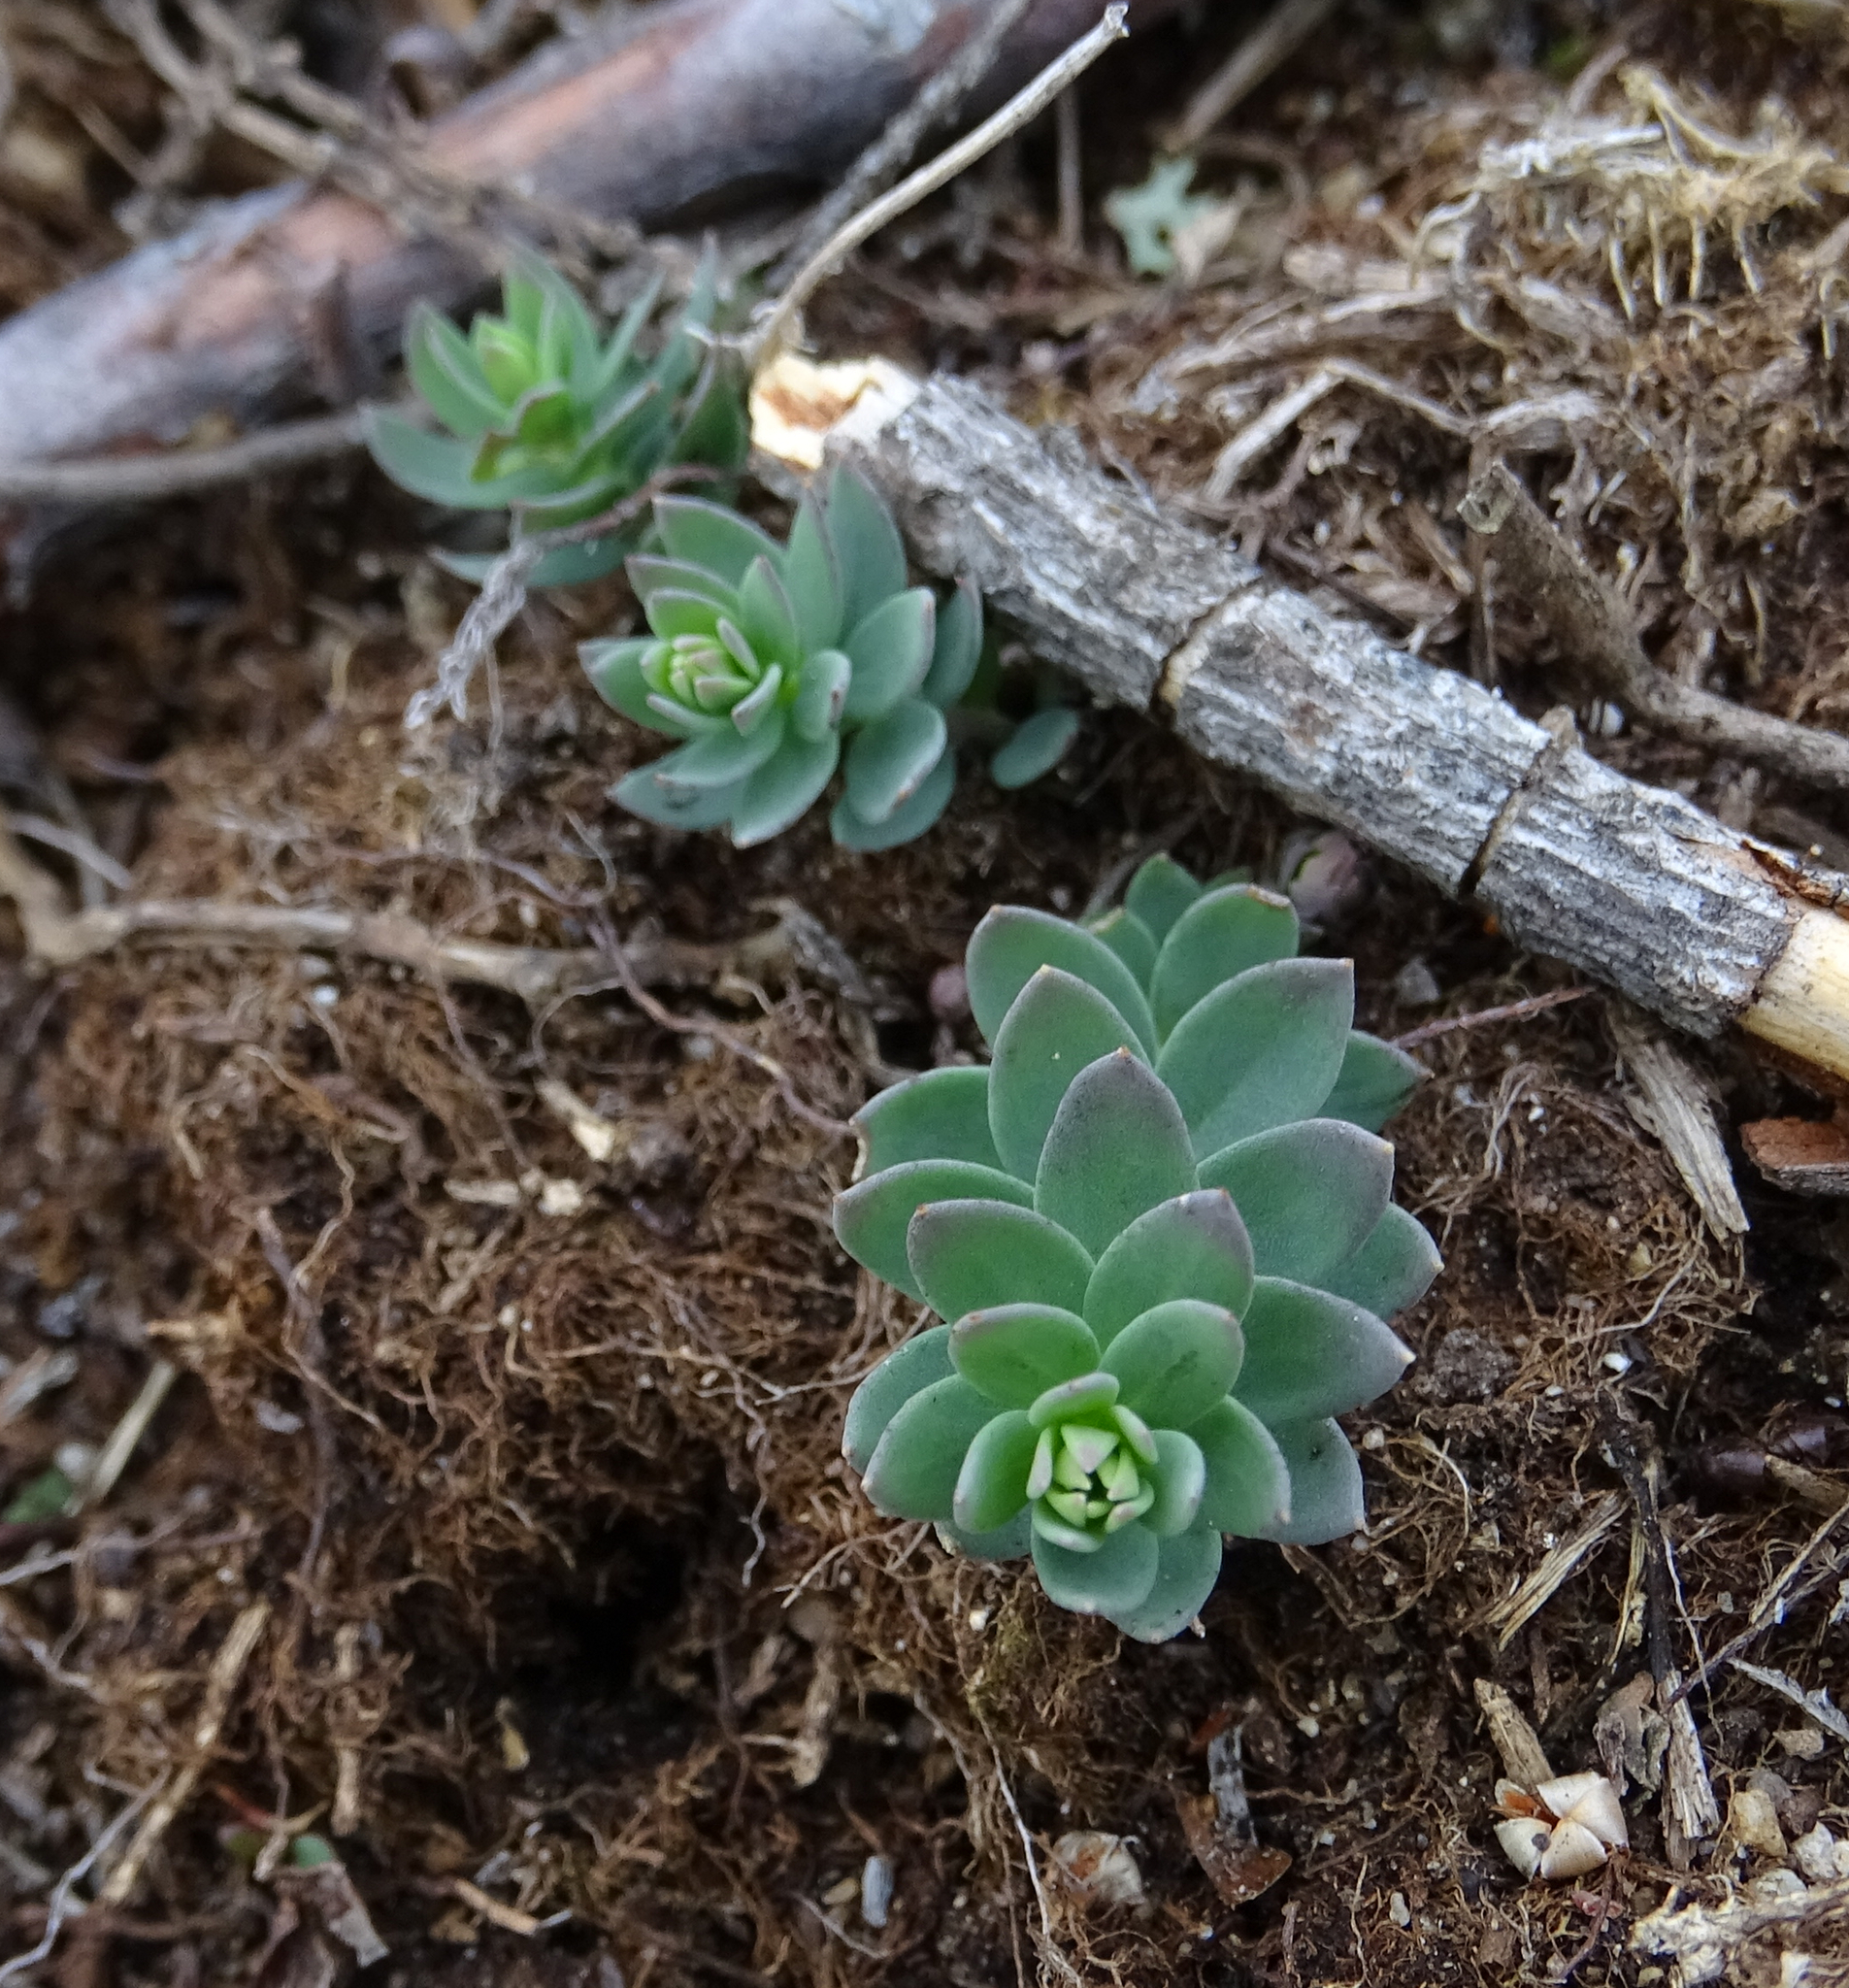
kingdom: Plantae
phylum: Tracheophyta
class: Magnoliopsida
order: Lamiales
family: Plantaginaceae
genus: Linaria
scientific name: Linaria genistifolia
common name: Broomleaf toadflax
